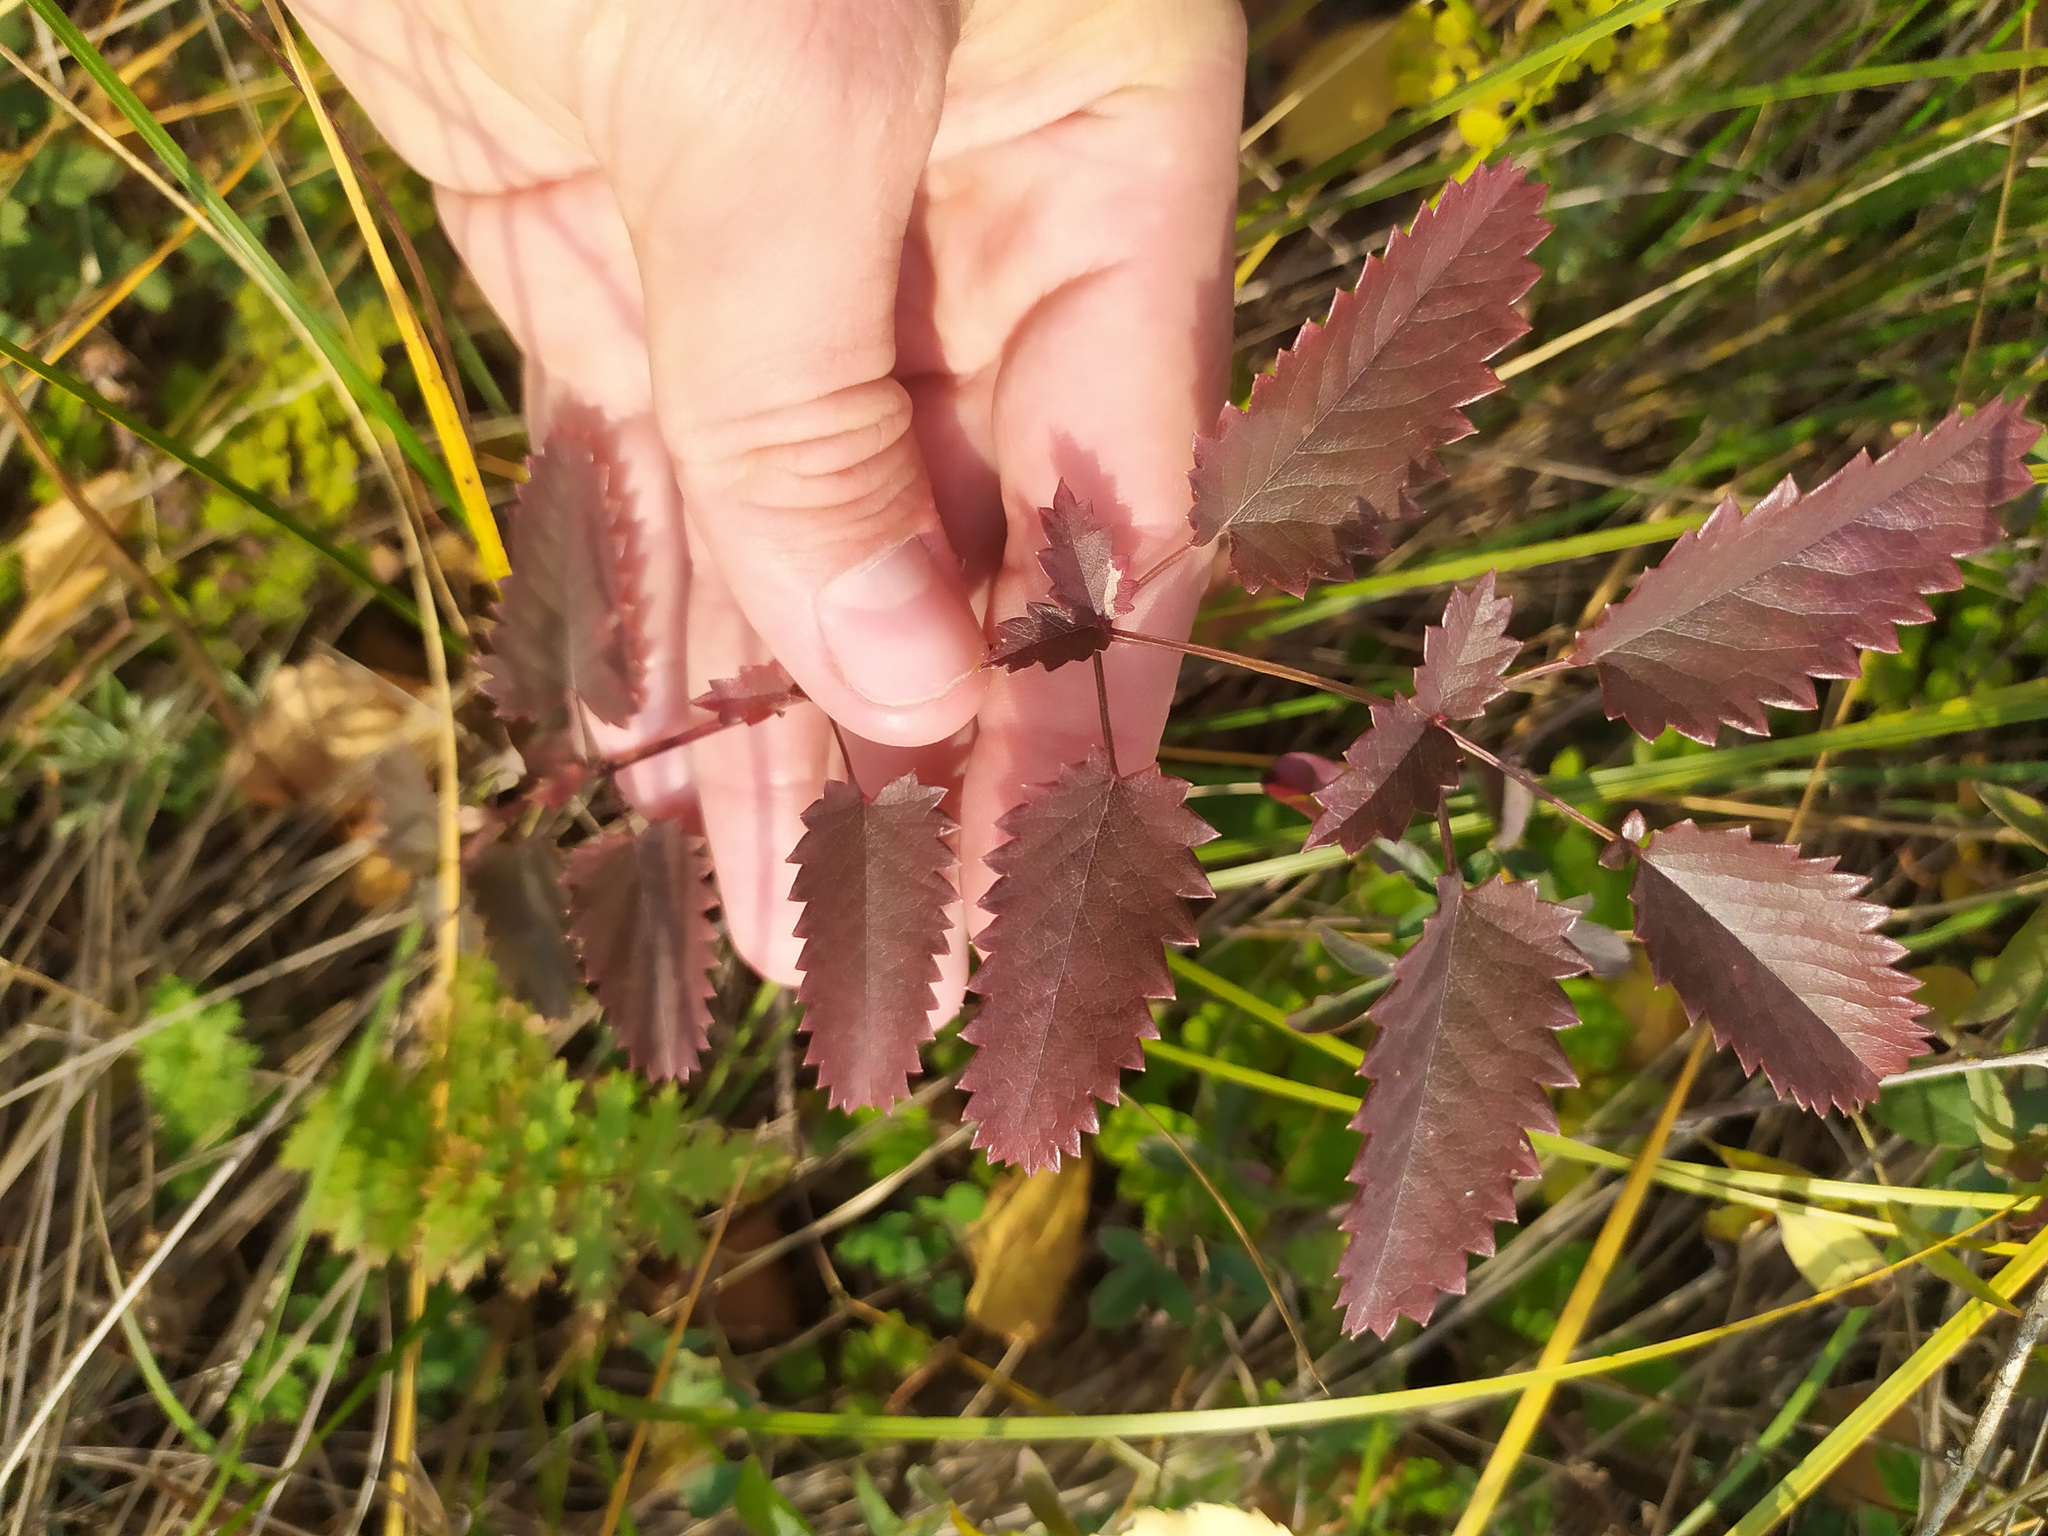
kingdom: Plantae
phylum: Tracheophyta
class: Magnoliopsida
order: Rosales
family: Rosaceae
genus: Sanguisorba
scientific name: Sanguisorba officinalis
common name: Great burnet
